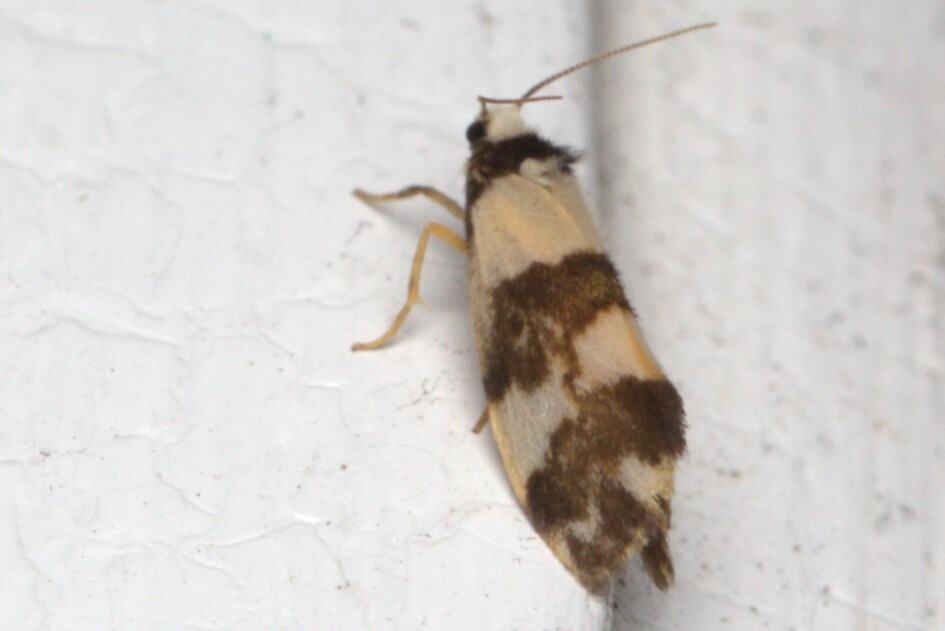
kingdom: Animalia
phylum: Arthropoda
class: Insecta
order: Lepidoptera
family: Erebidae
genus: Philenora
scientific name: Philenora aspectalella
